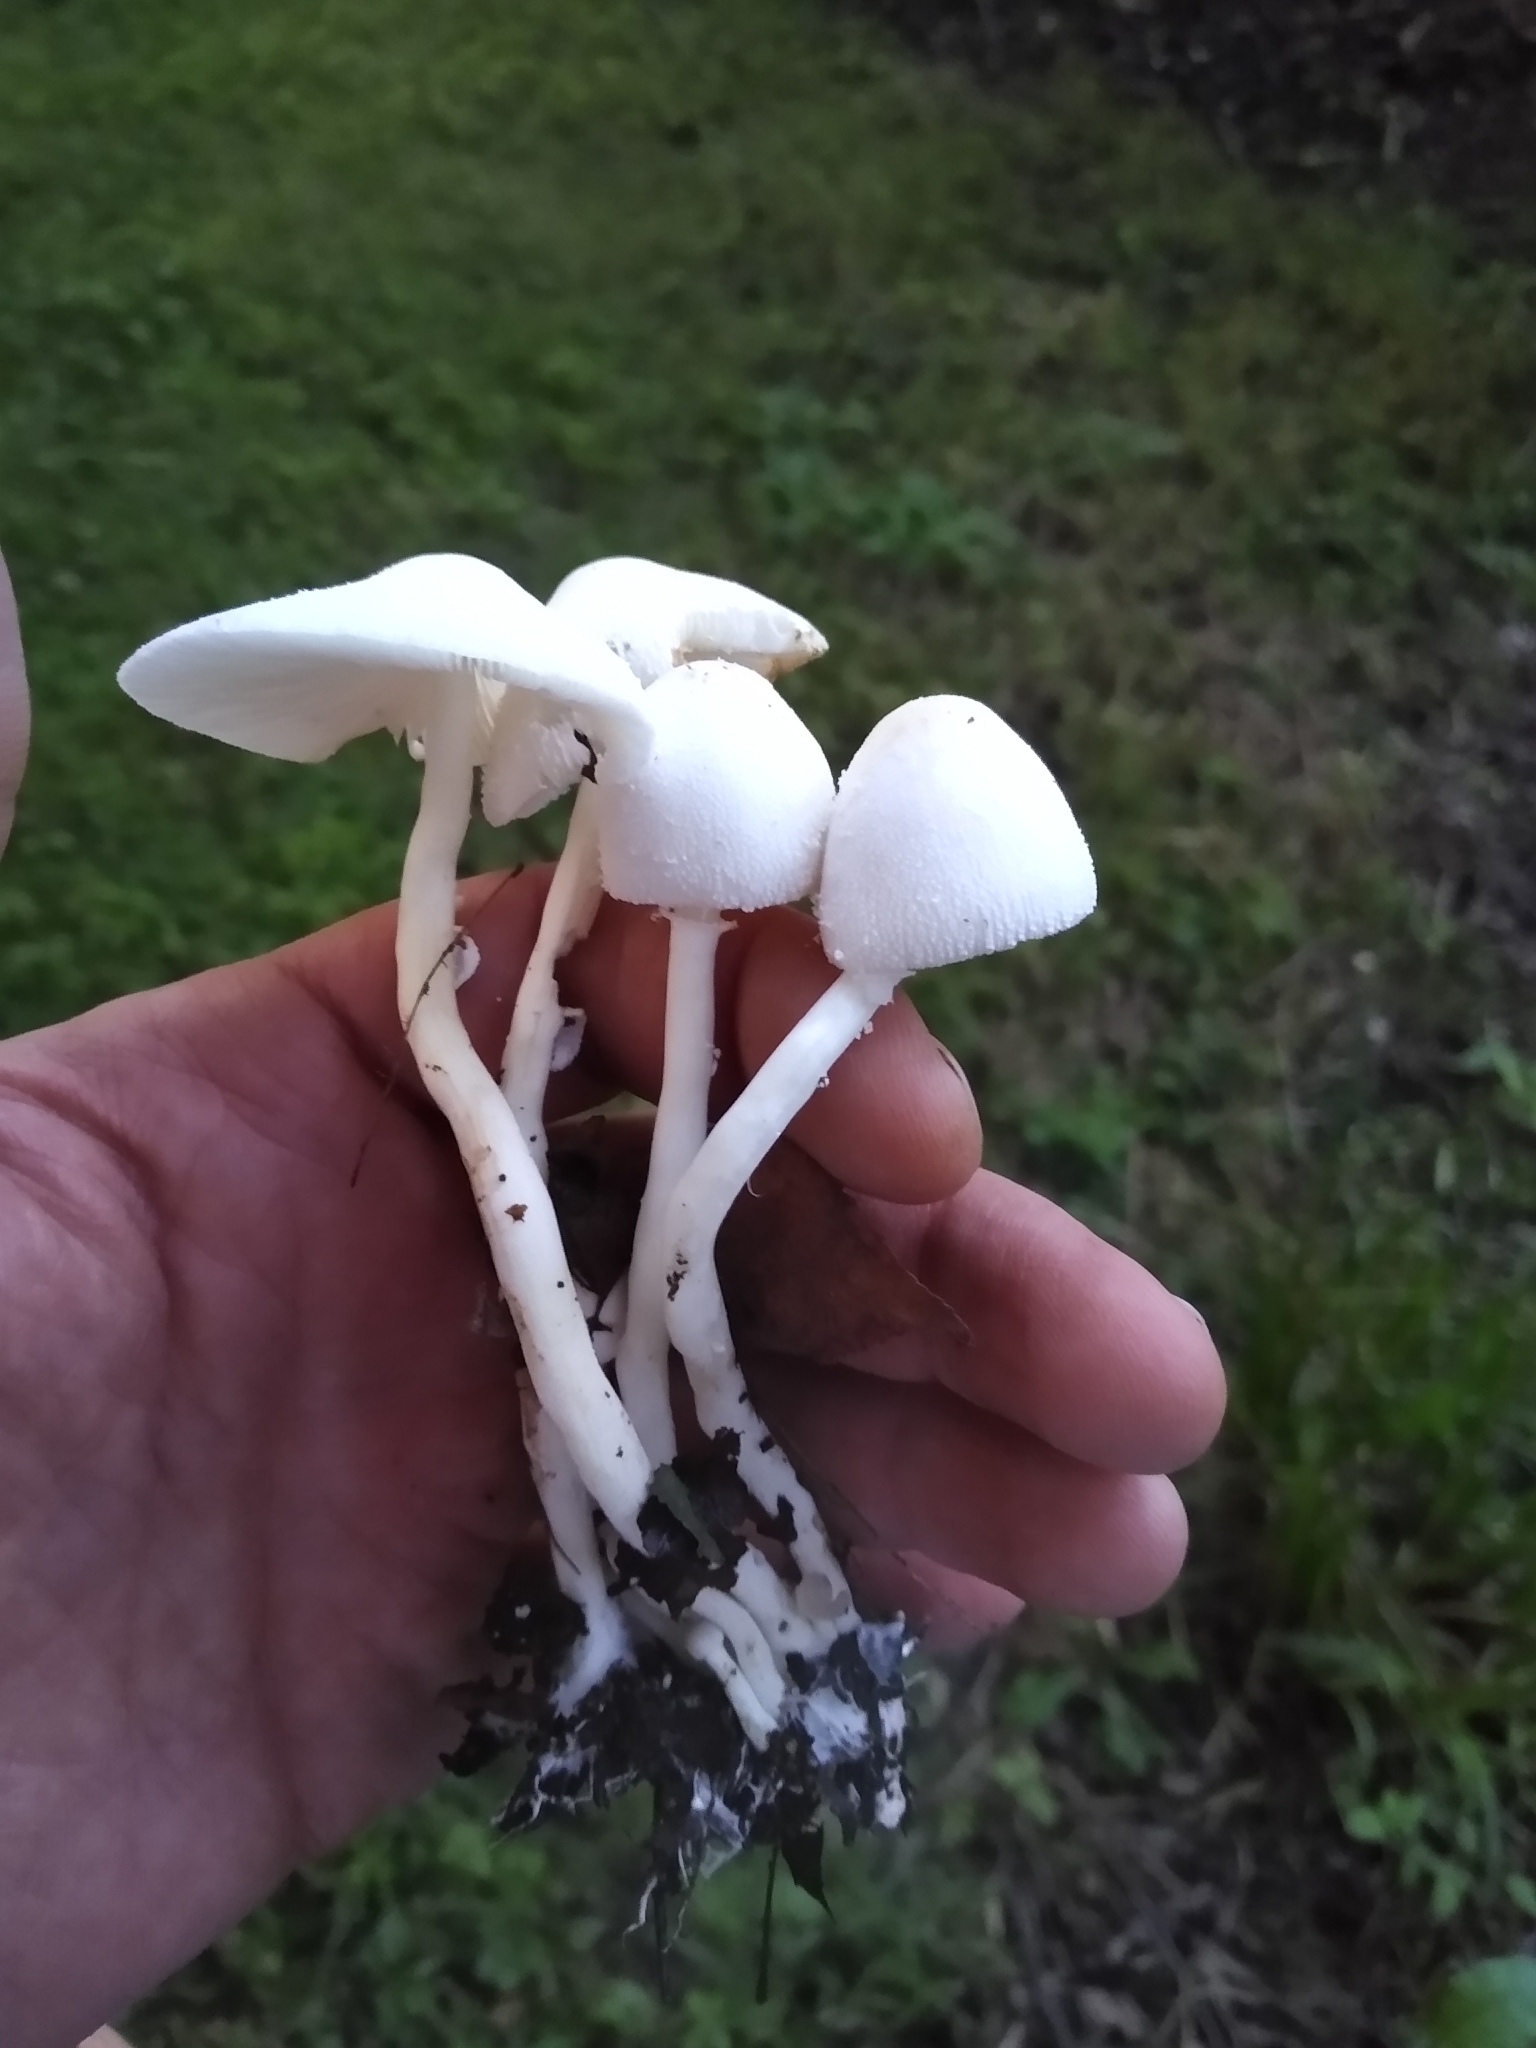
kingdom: Fungi
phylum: Basidiomycota
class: Agaricomycetes
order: Agaricales
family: Agaricaceae
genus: Leucocoprinus
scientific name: Leucocoprinus cepistipes
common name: Onion-stalk parasol
